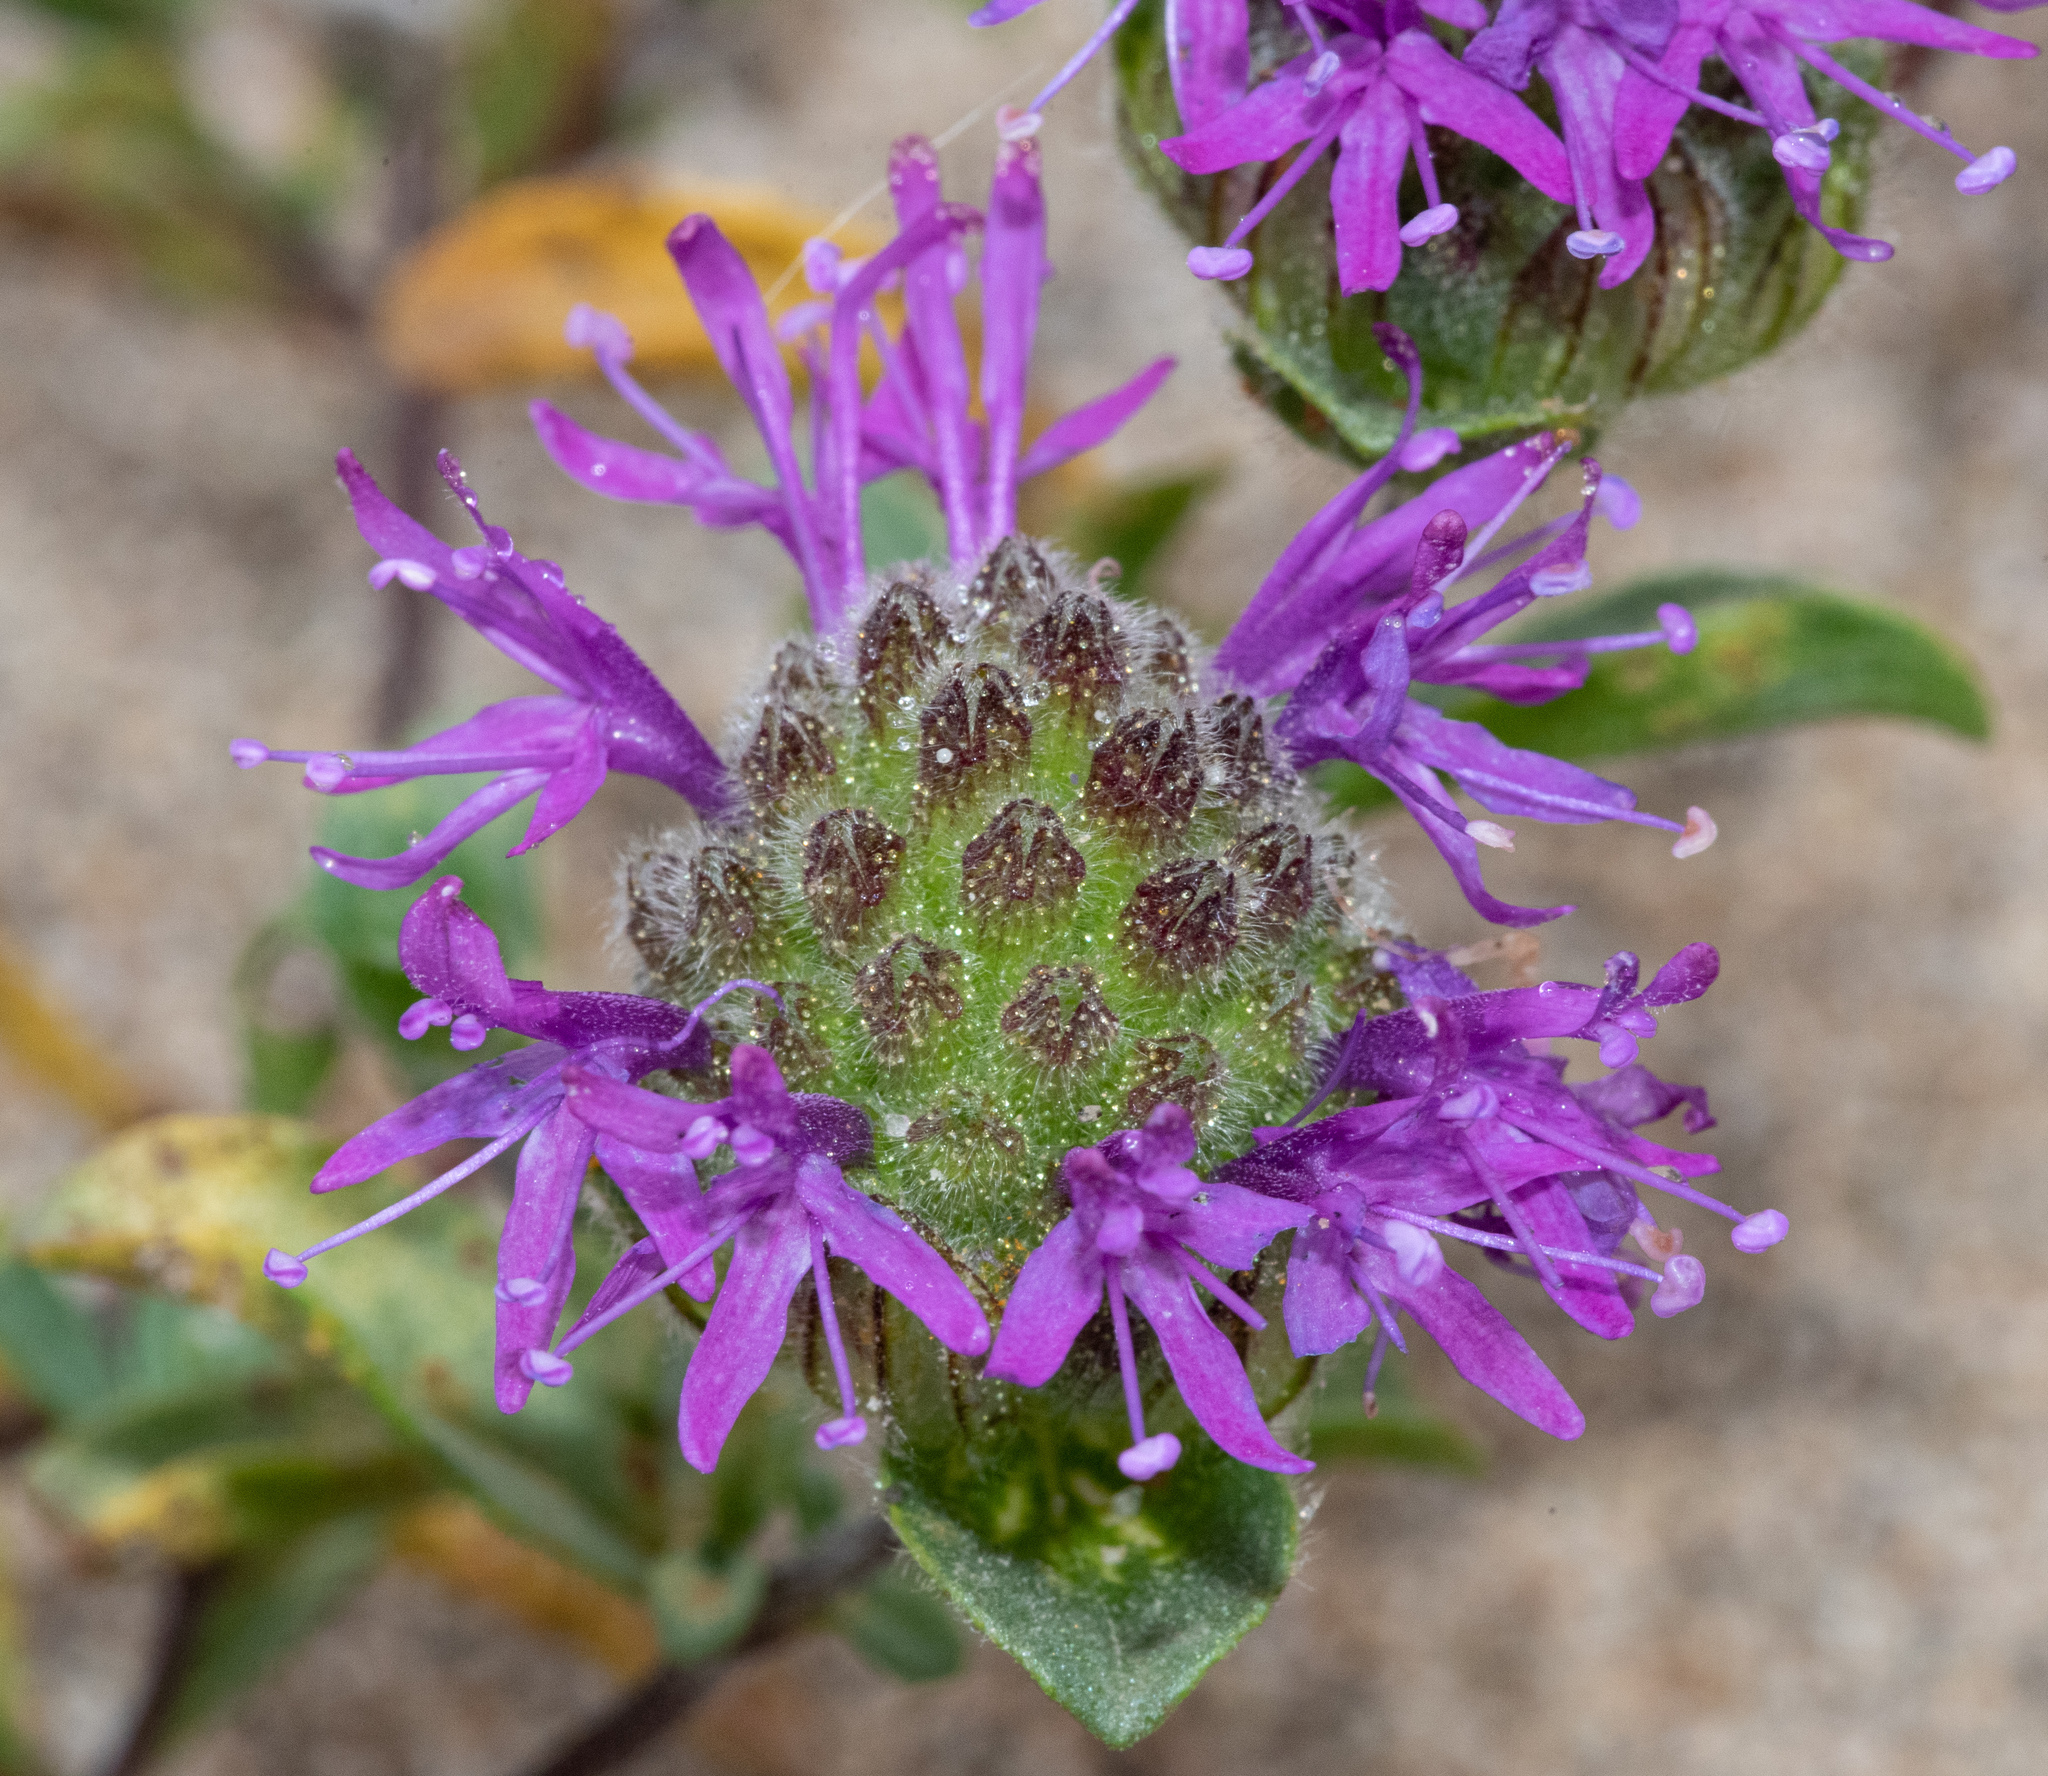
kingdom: Plantae
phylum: Tracheophyta
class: Magnoliopsida
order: Lamiales
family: Lamiaceae
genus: Monardella
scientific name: Monardella sinuata
